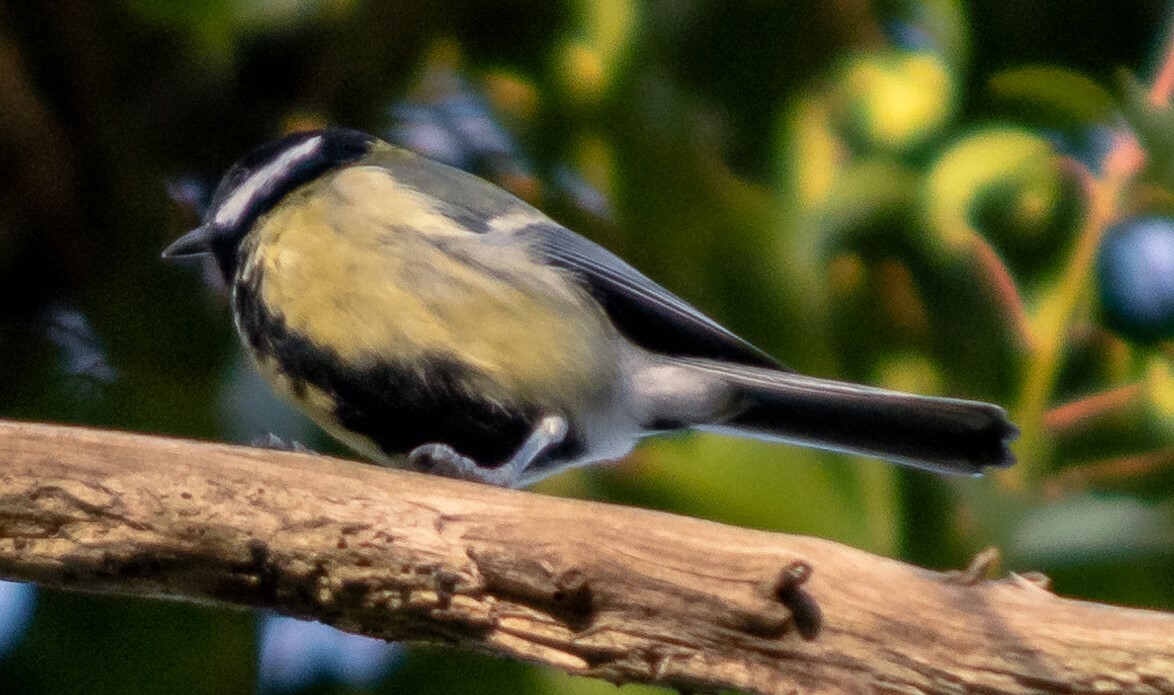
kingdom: Animalia
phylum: Chordata
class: Aves
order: Passeriformes
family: Paridae
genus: Parus
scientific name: Parus major
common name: Great tit
